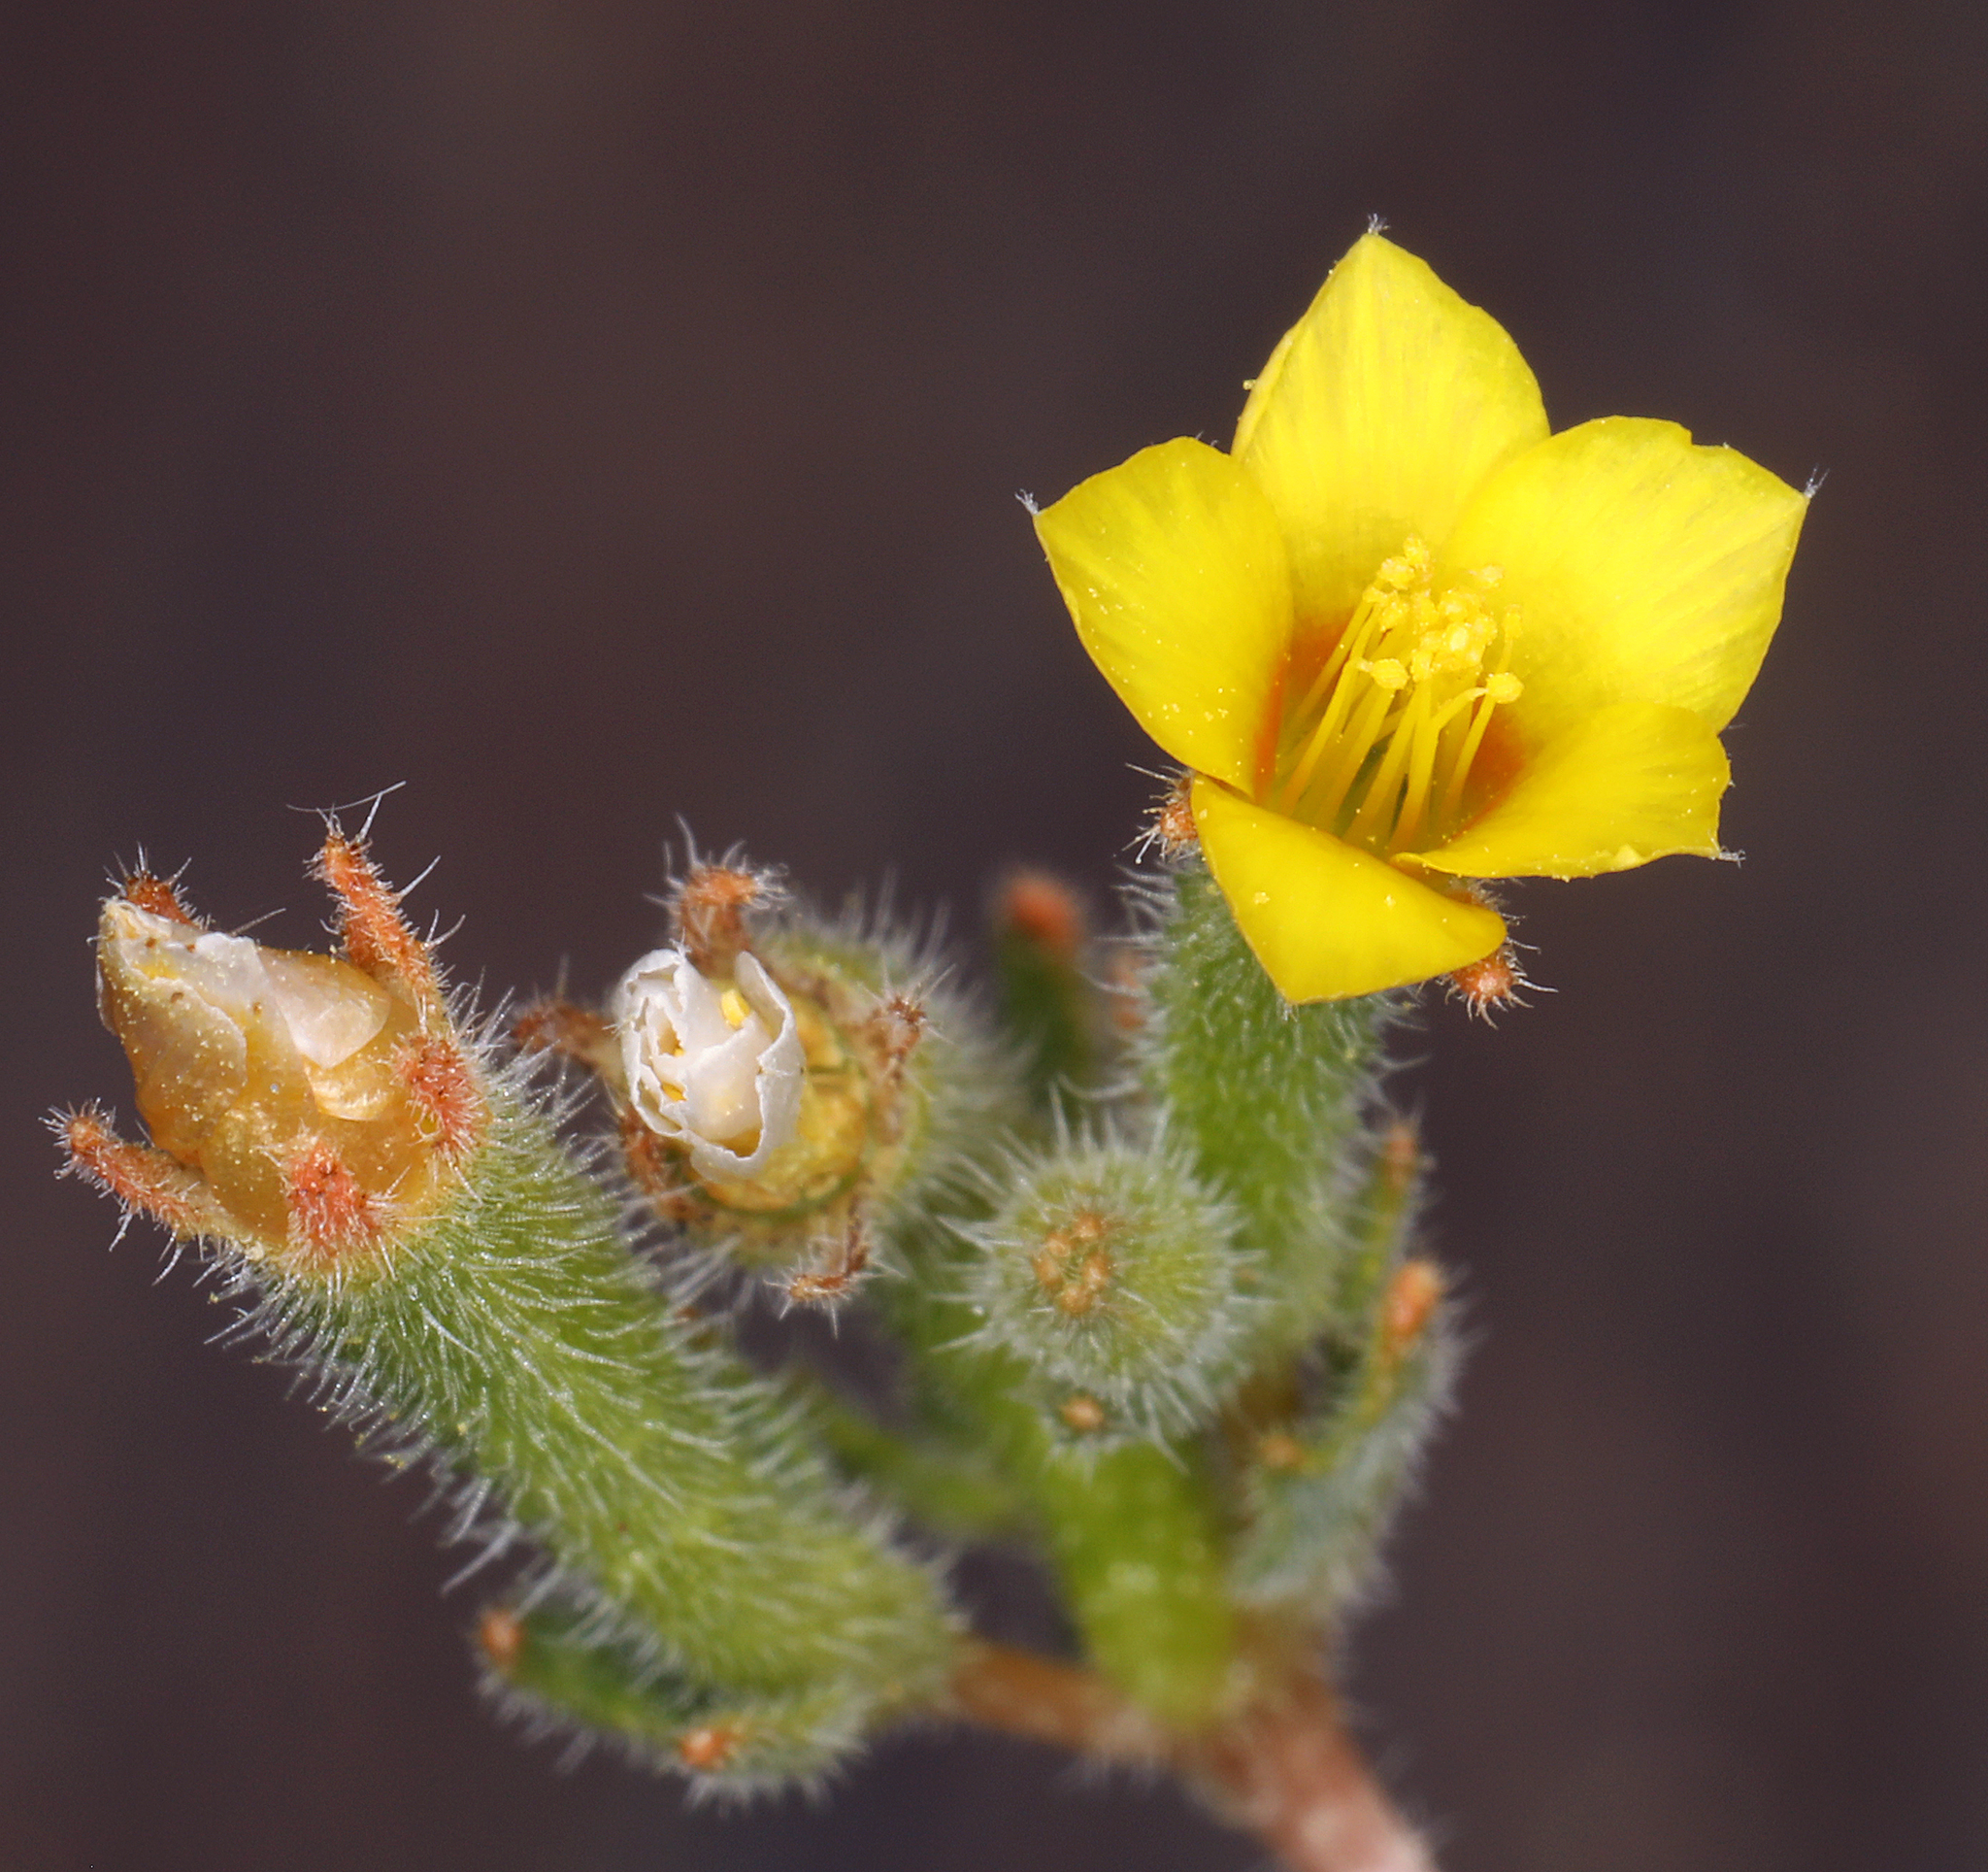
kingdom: Plantae
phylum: Tracheophyta
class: Magnoliopsida
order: Cornales
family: Loasaceae
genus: Mentzelia
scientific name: Mentzelia albicaulis
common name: White-stem blazingstar
